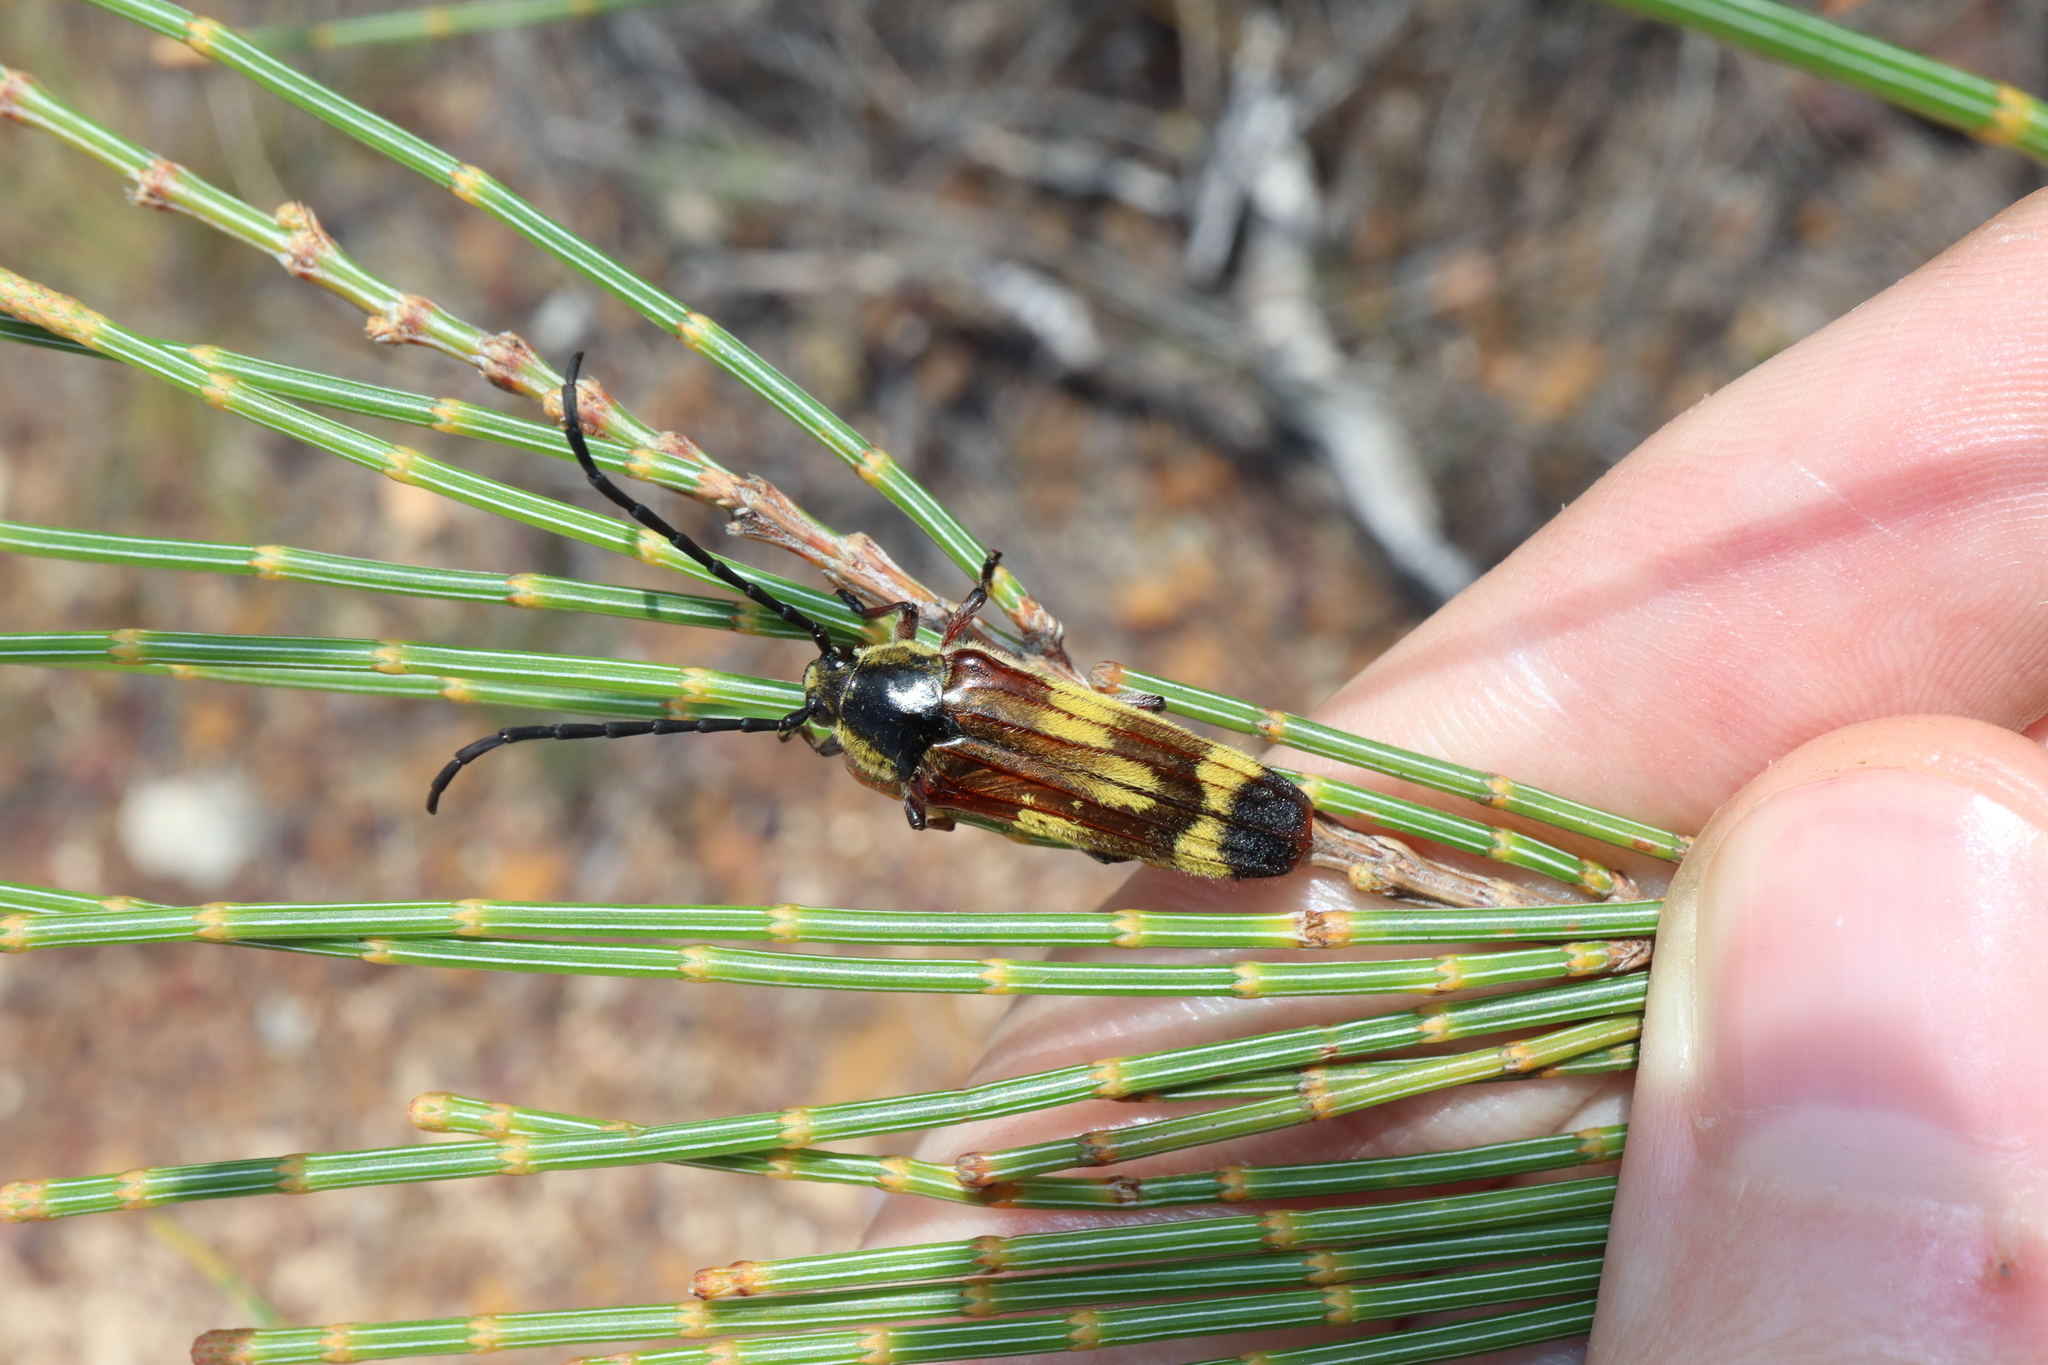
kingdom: Animalia
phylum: Arthropoda
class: Insecta
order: Coleoptera
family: Cerambycidae
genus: Tragocerus
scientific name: Tragocerus fasciatus
